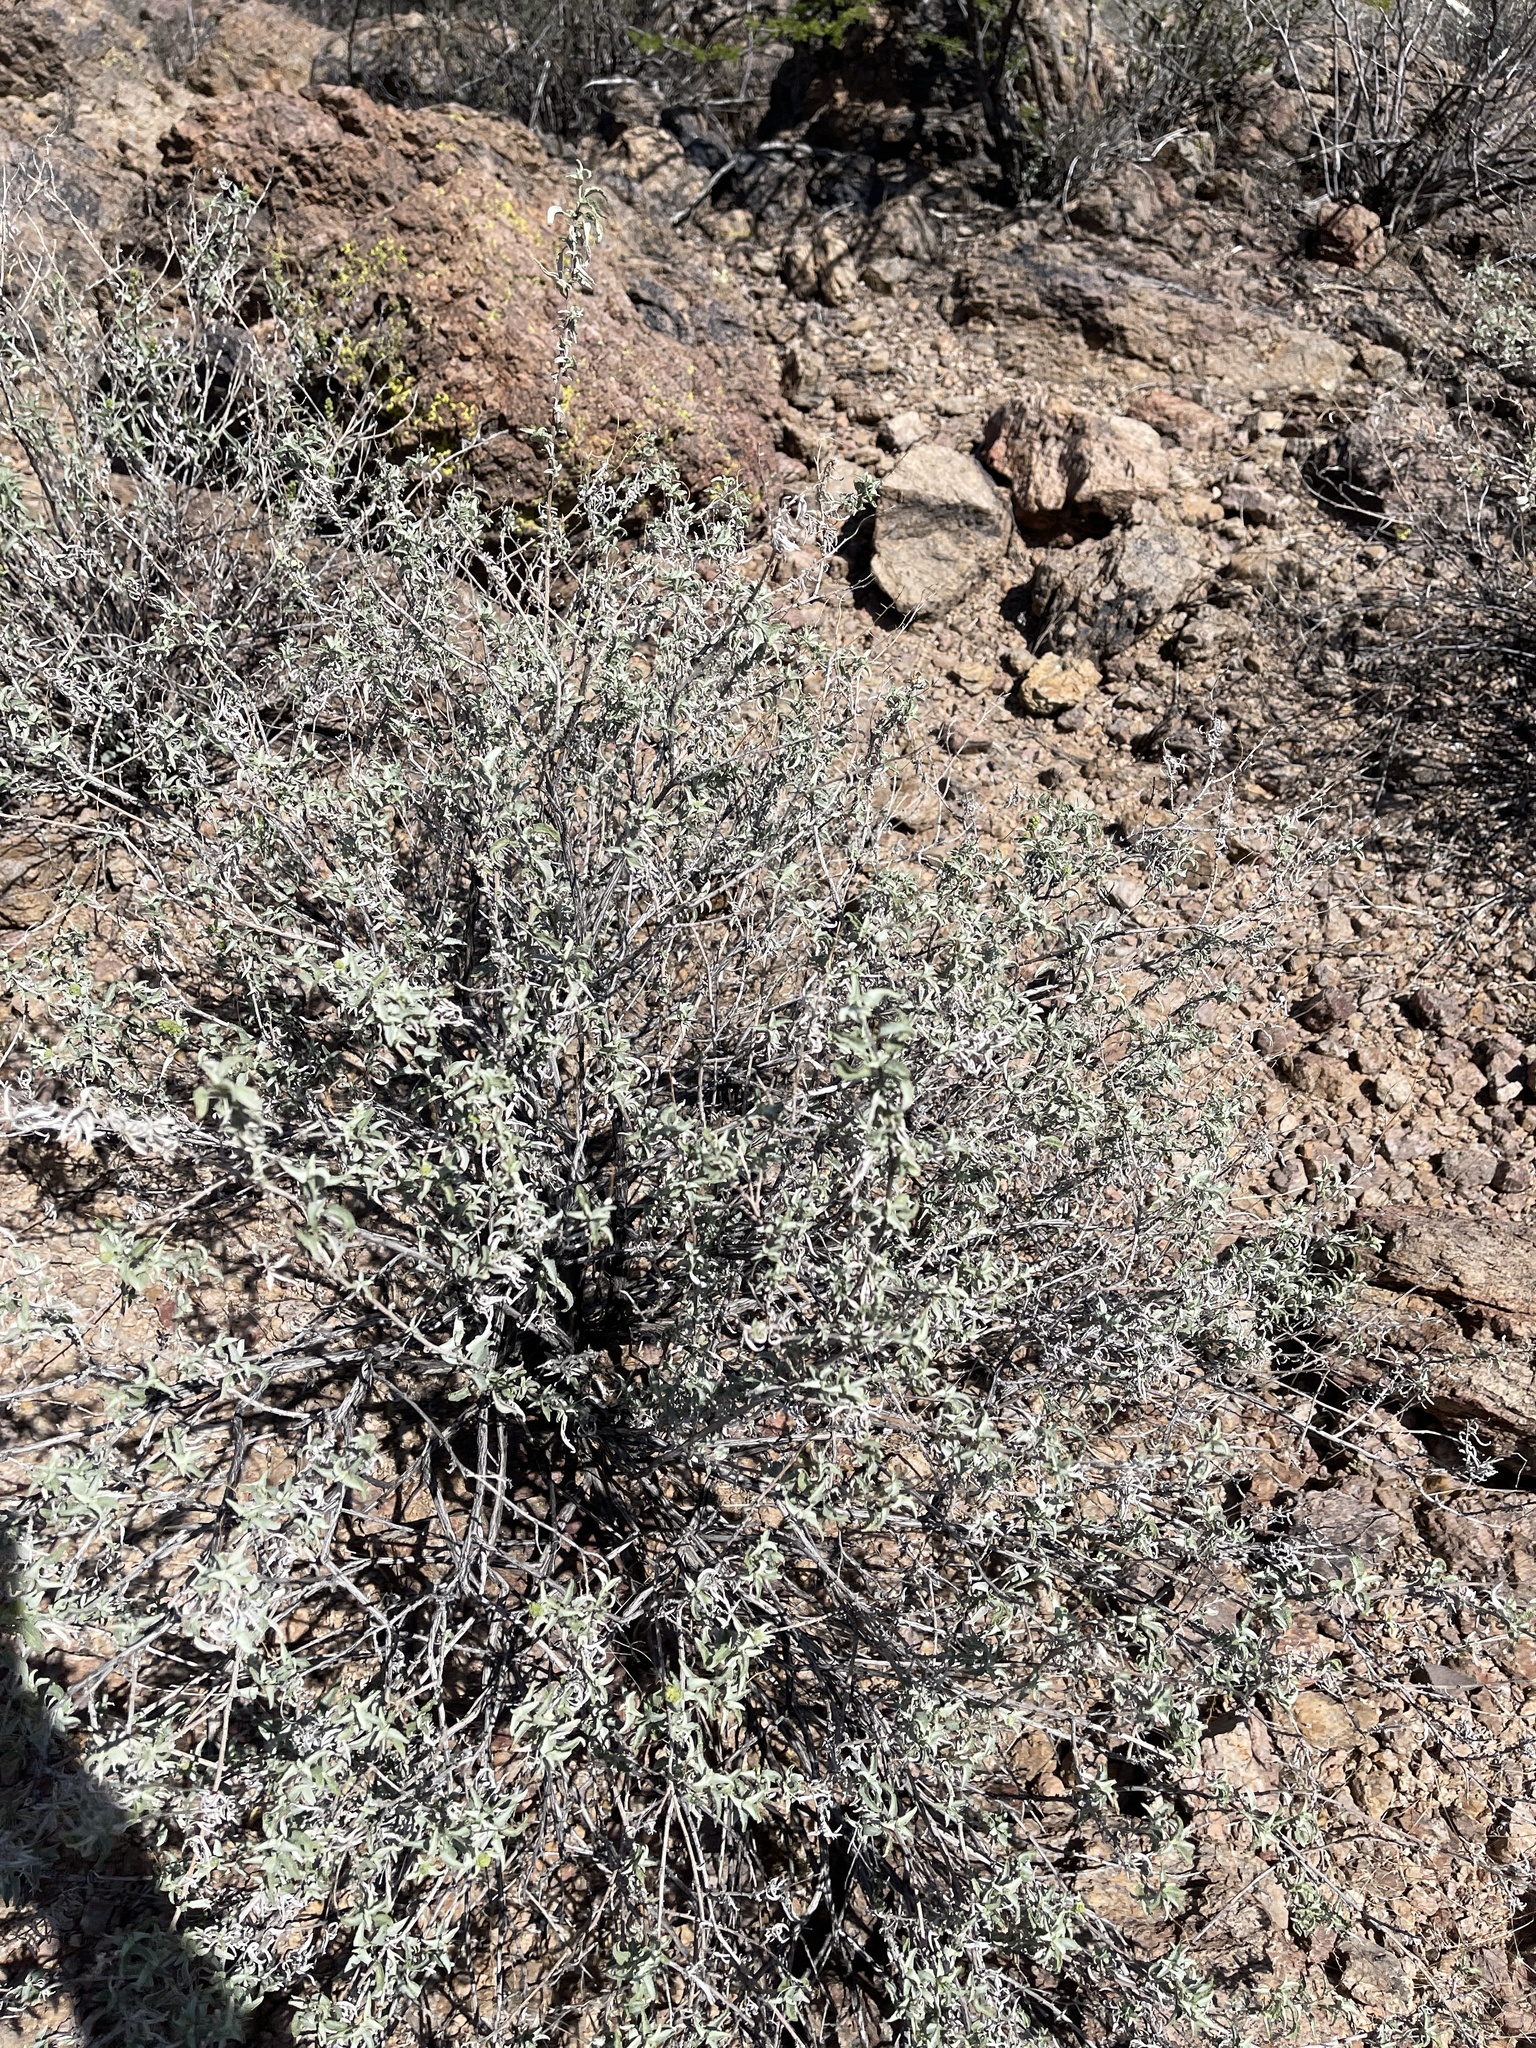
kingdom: Plantae
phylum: Tracheophyta
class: Magnoliopsida
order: Asterales
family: Asteraceae
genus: Ambrosia
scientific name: Ambrosia deltoidea
